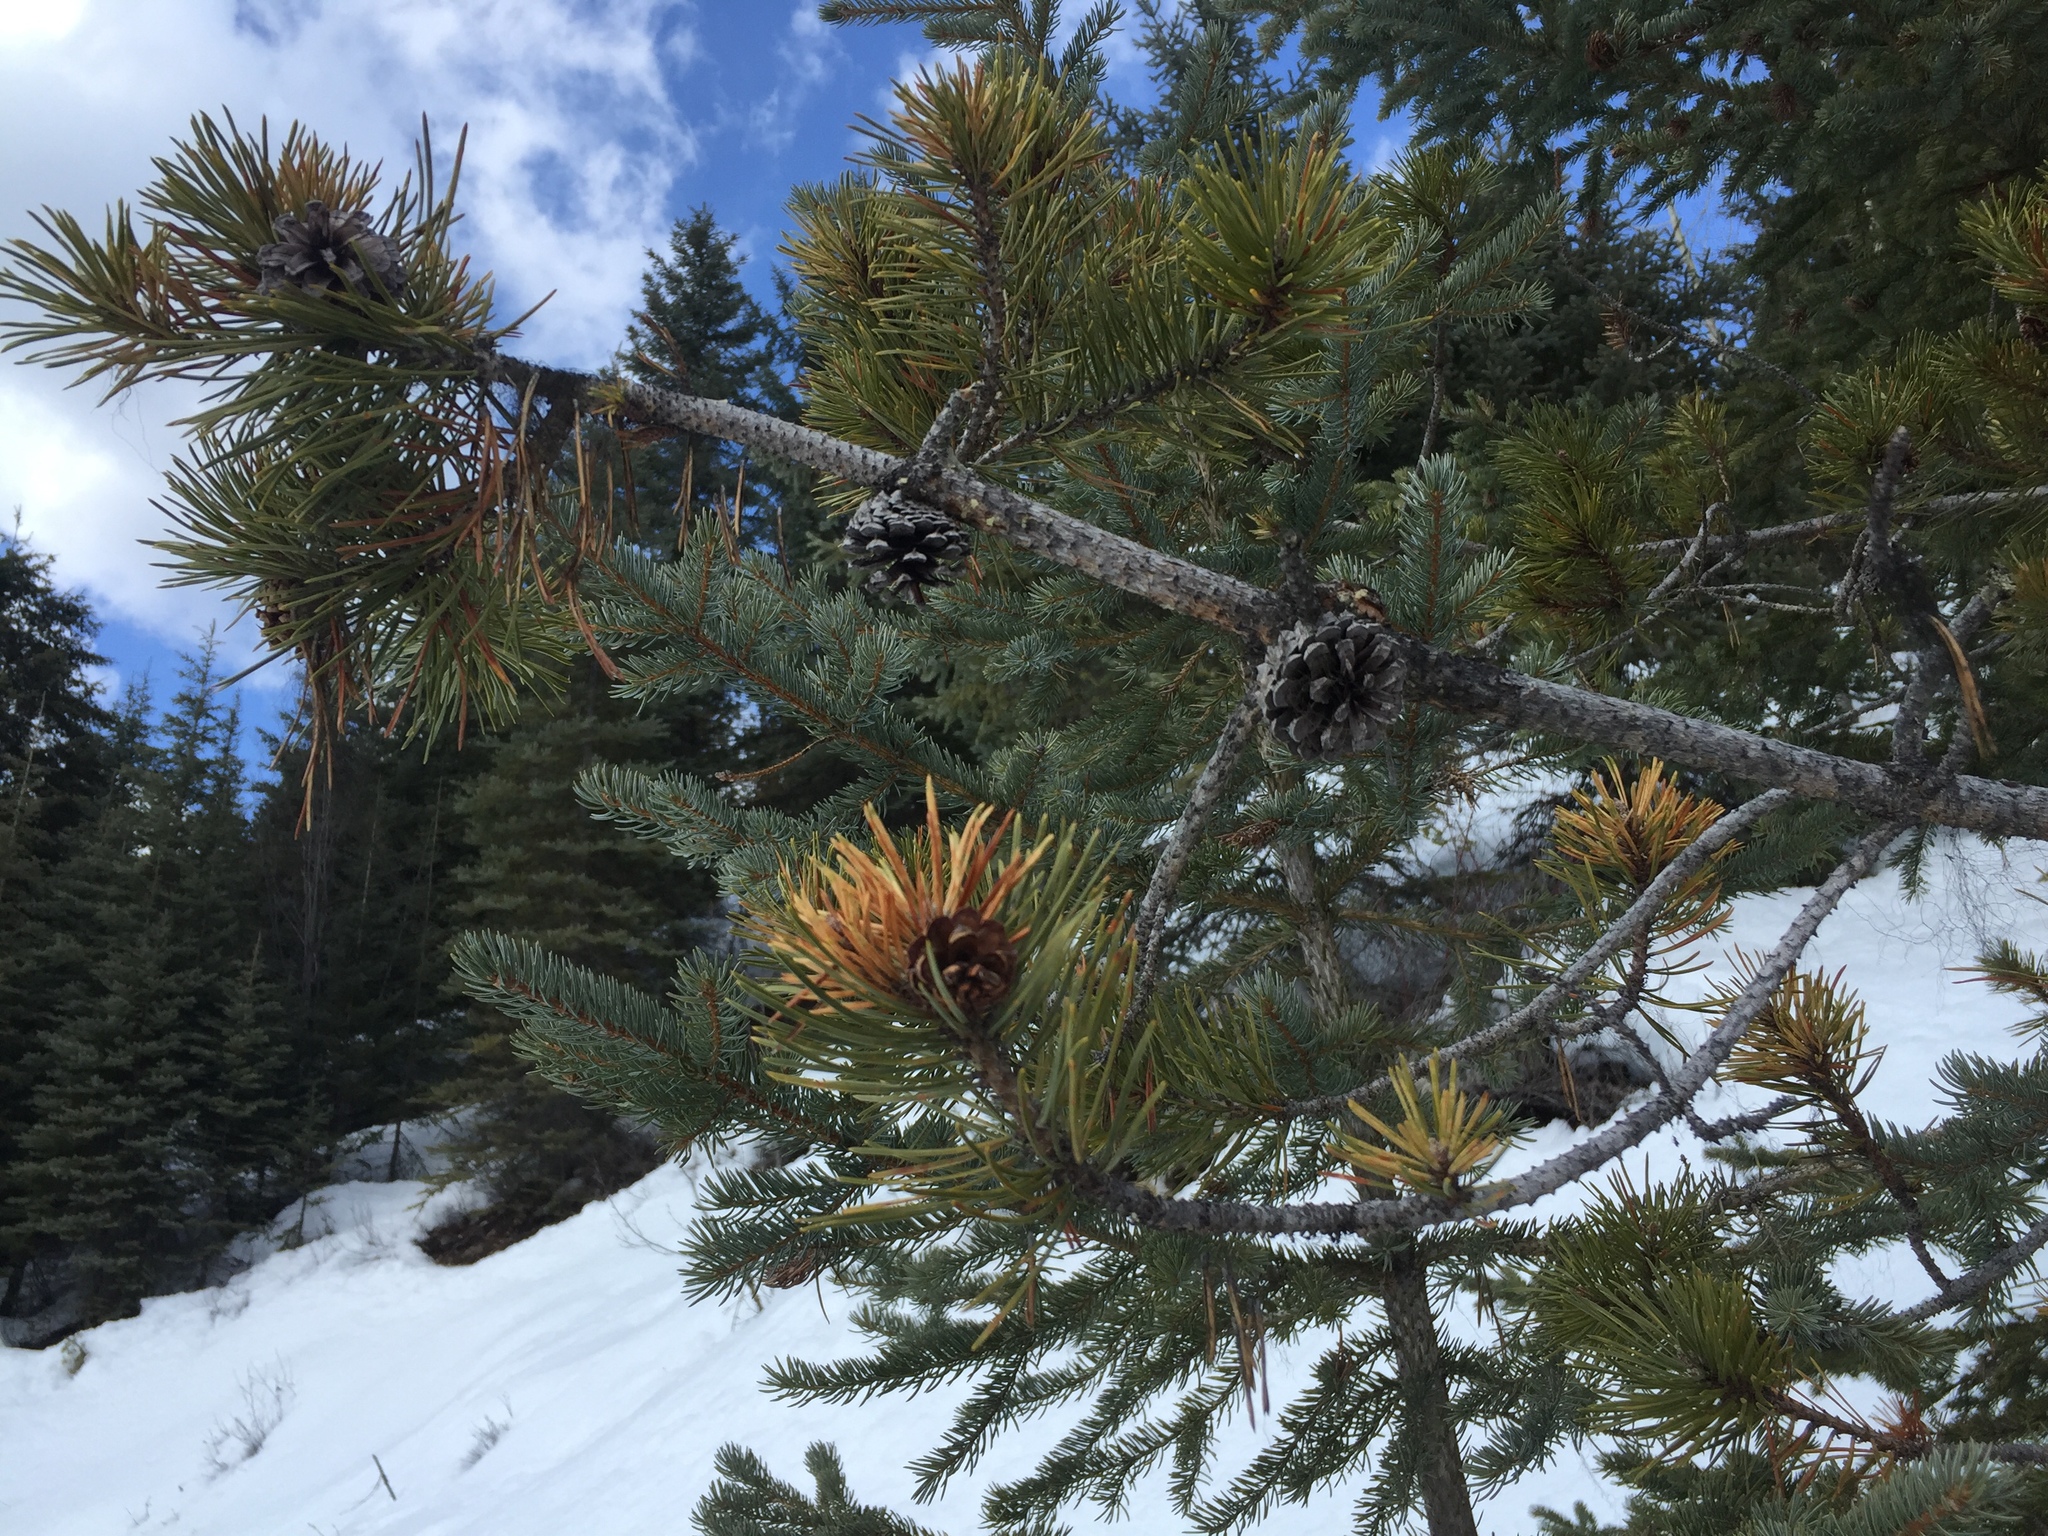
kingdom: Plantae
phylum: Tracheophyta
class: Pinopsida
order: Pinales
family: Pinaceae
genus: Pinus
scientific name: Pinus contorta
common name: Lodgepole pine
